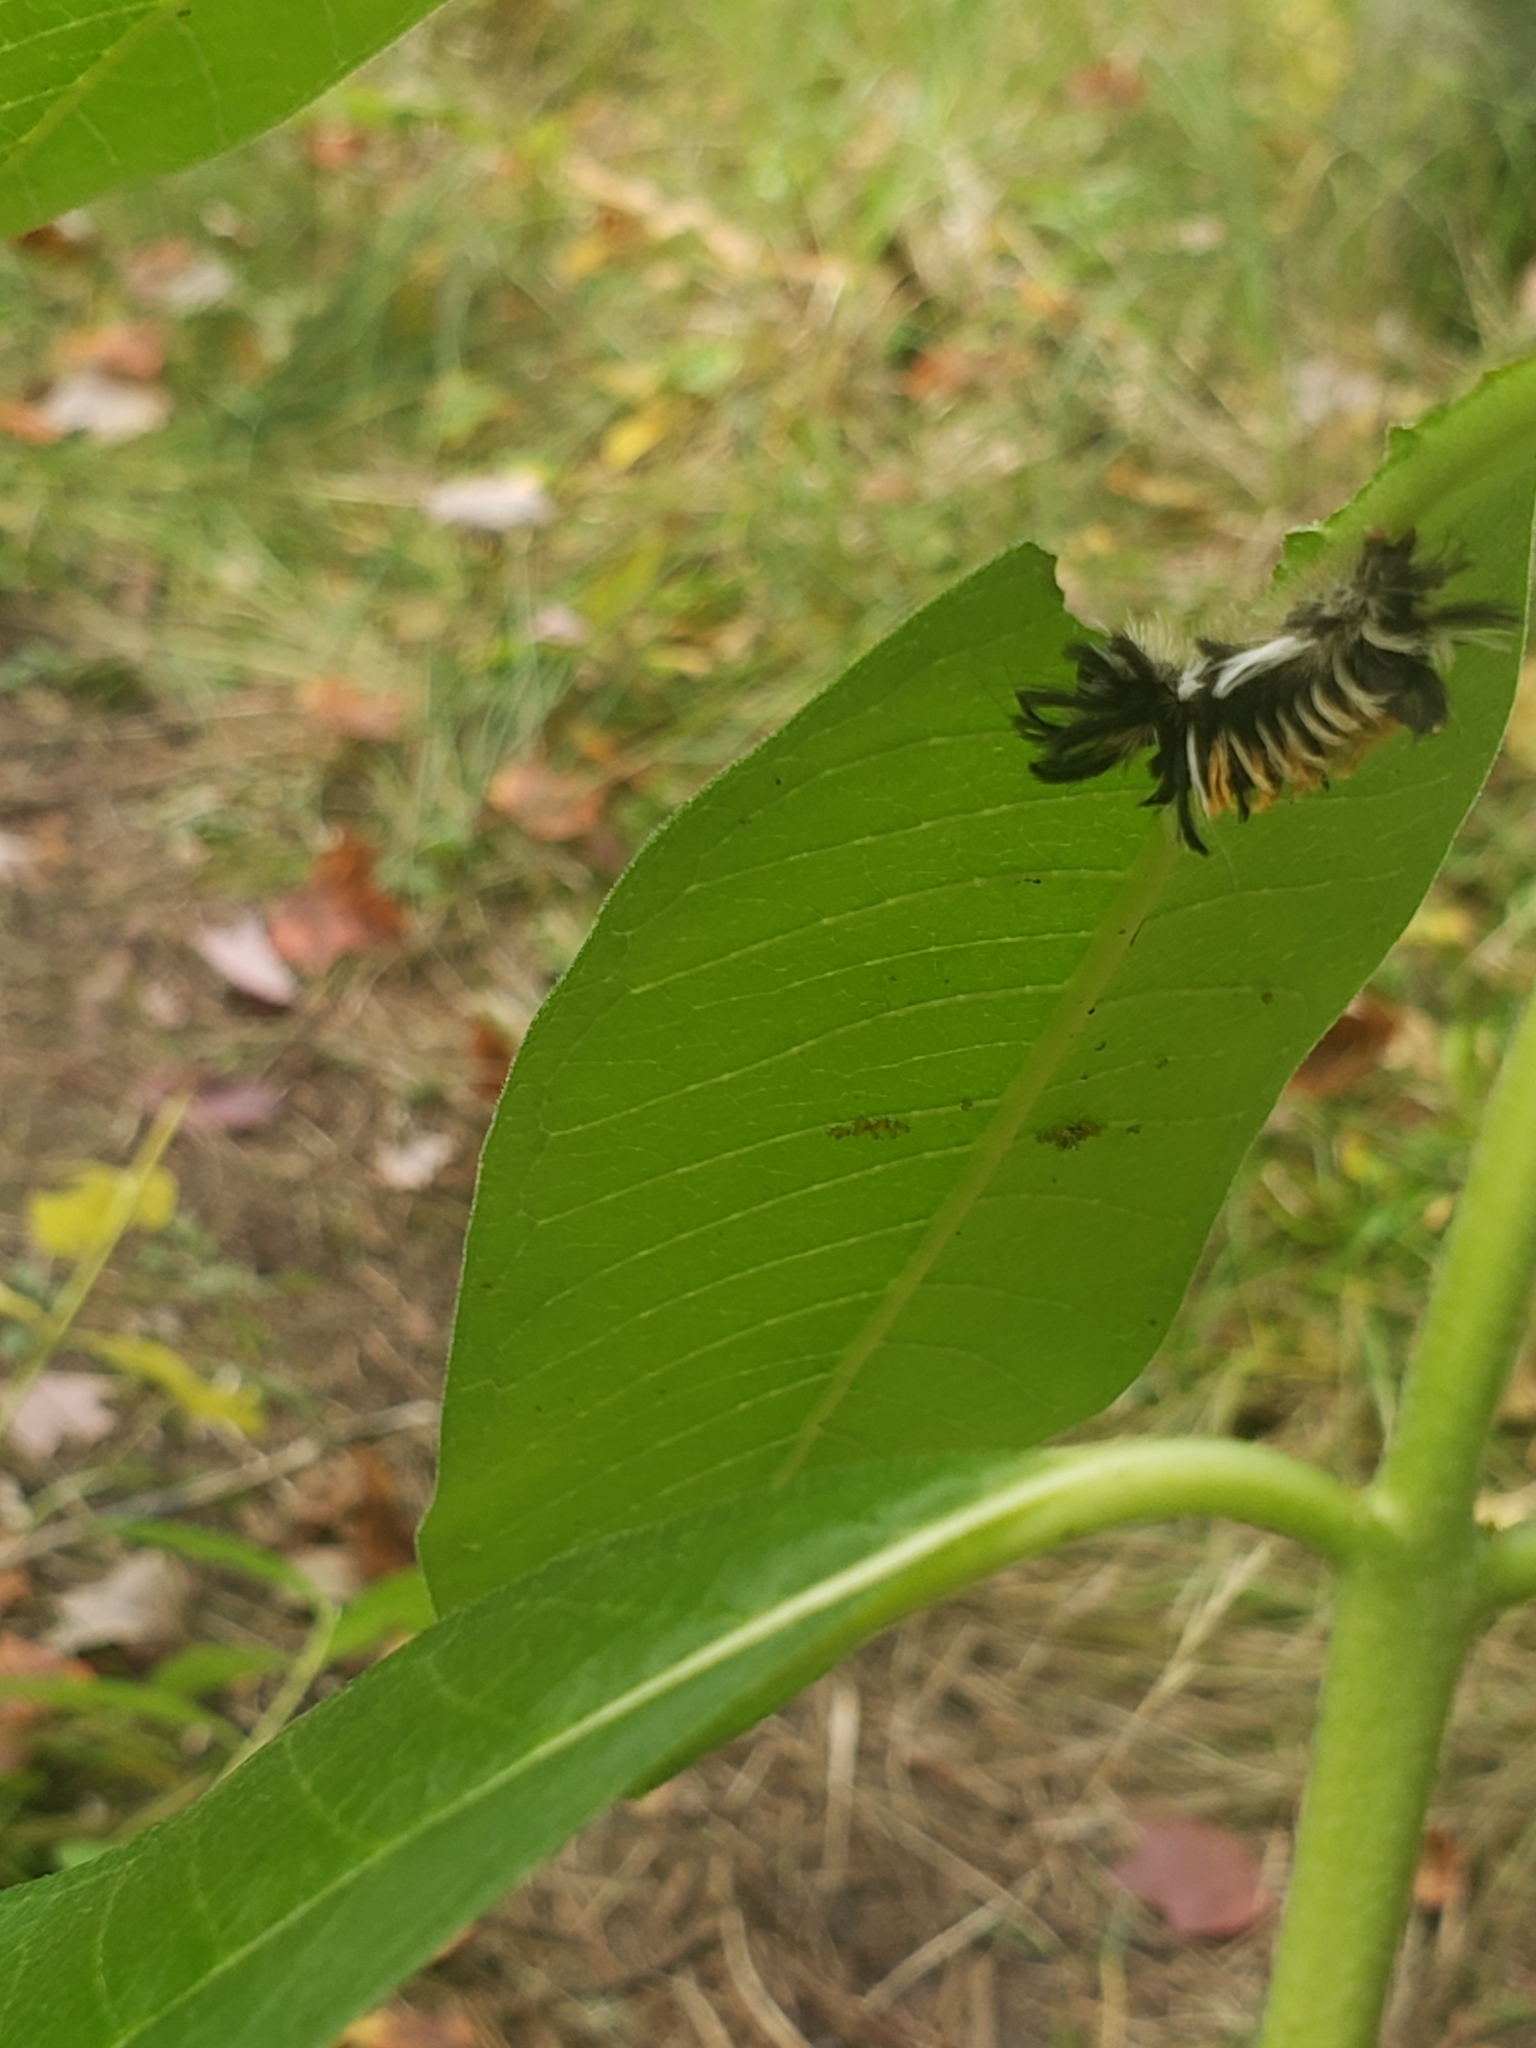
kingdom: Animalia
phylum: Arthropoda
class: Insecta
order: Lepidoptera
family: Erebidae
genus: Euchaetes
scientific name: Euchaetes egle
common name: Milkweed tussock moth
